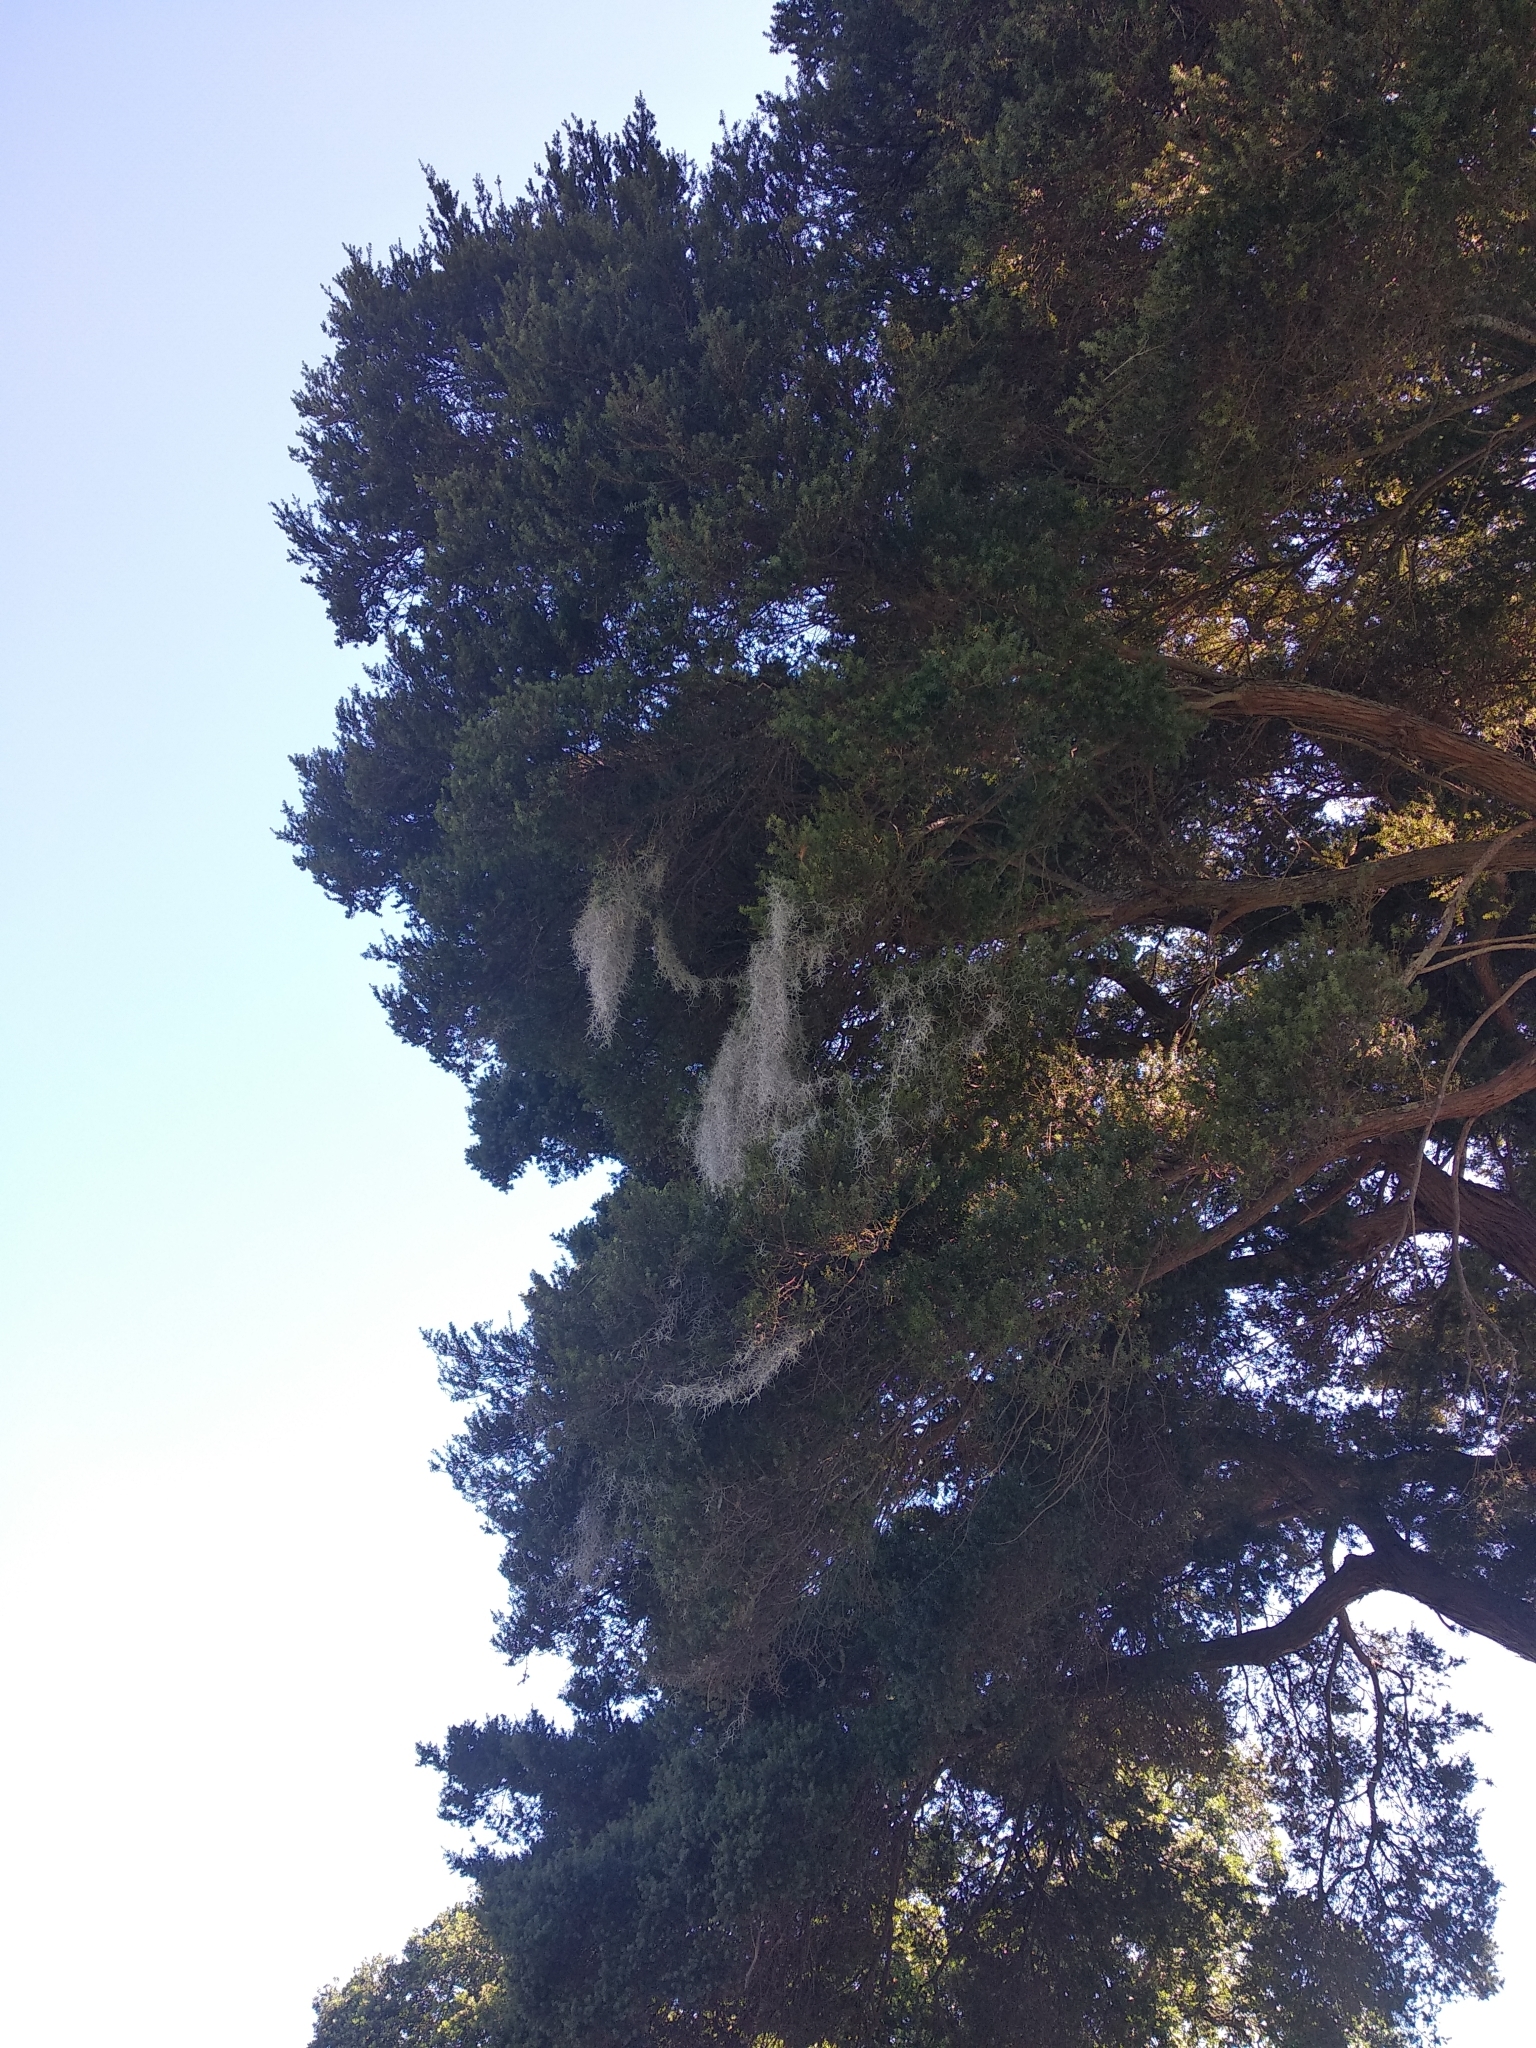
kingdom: Plantae
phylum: Tracheophyta
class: Liliopsida
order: Poales
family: Bromeliaceae
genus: Tillandsia
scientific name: Tillandsia usneoides
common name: Spanish moss
